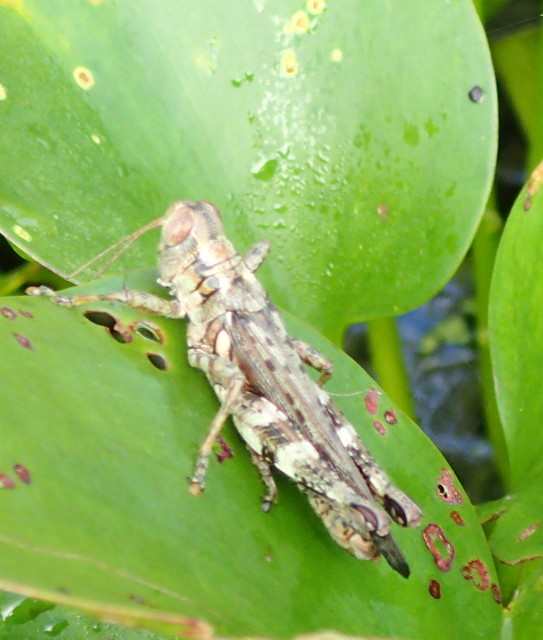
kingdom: Animalia
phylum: Arthropoda
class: Insecta
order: Orthoptera
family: Acrididae
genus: Melanoplus
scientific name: Melanoplus punctulatus
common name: Pine-tree spur-throat grasshopper
